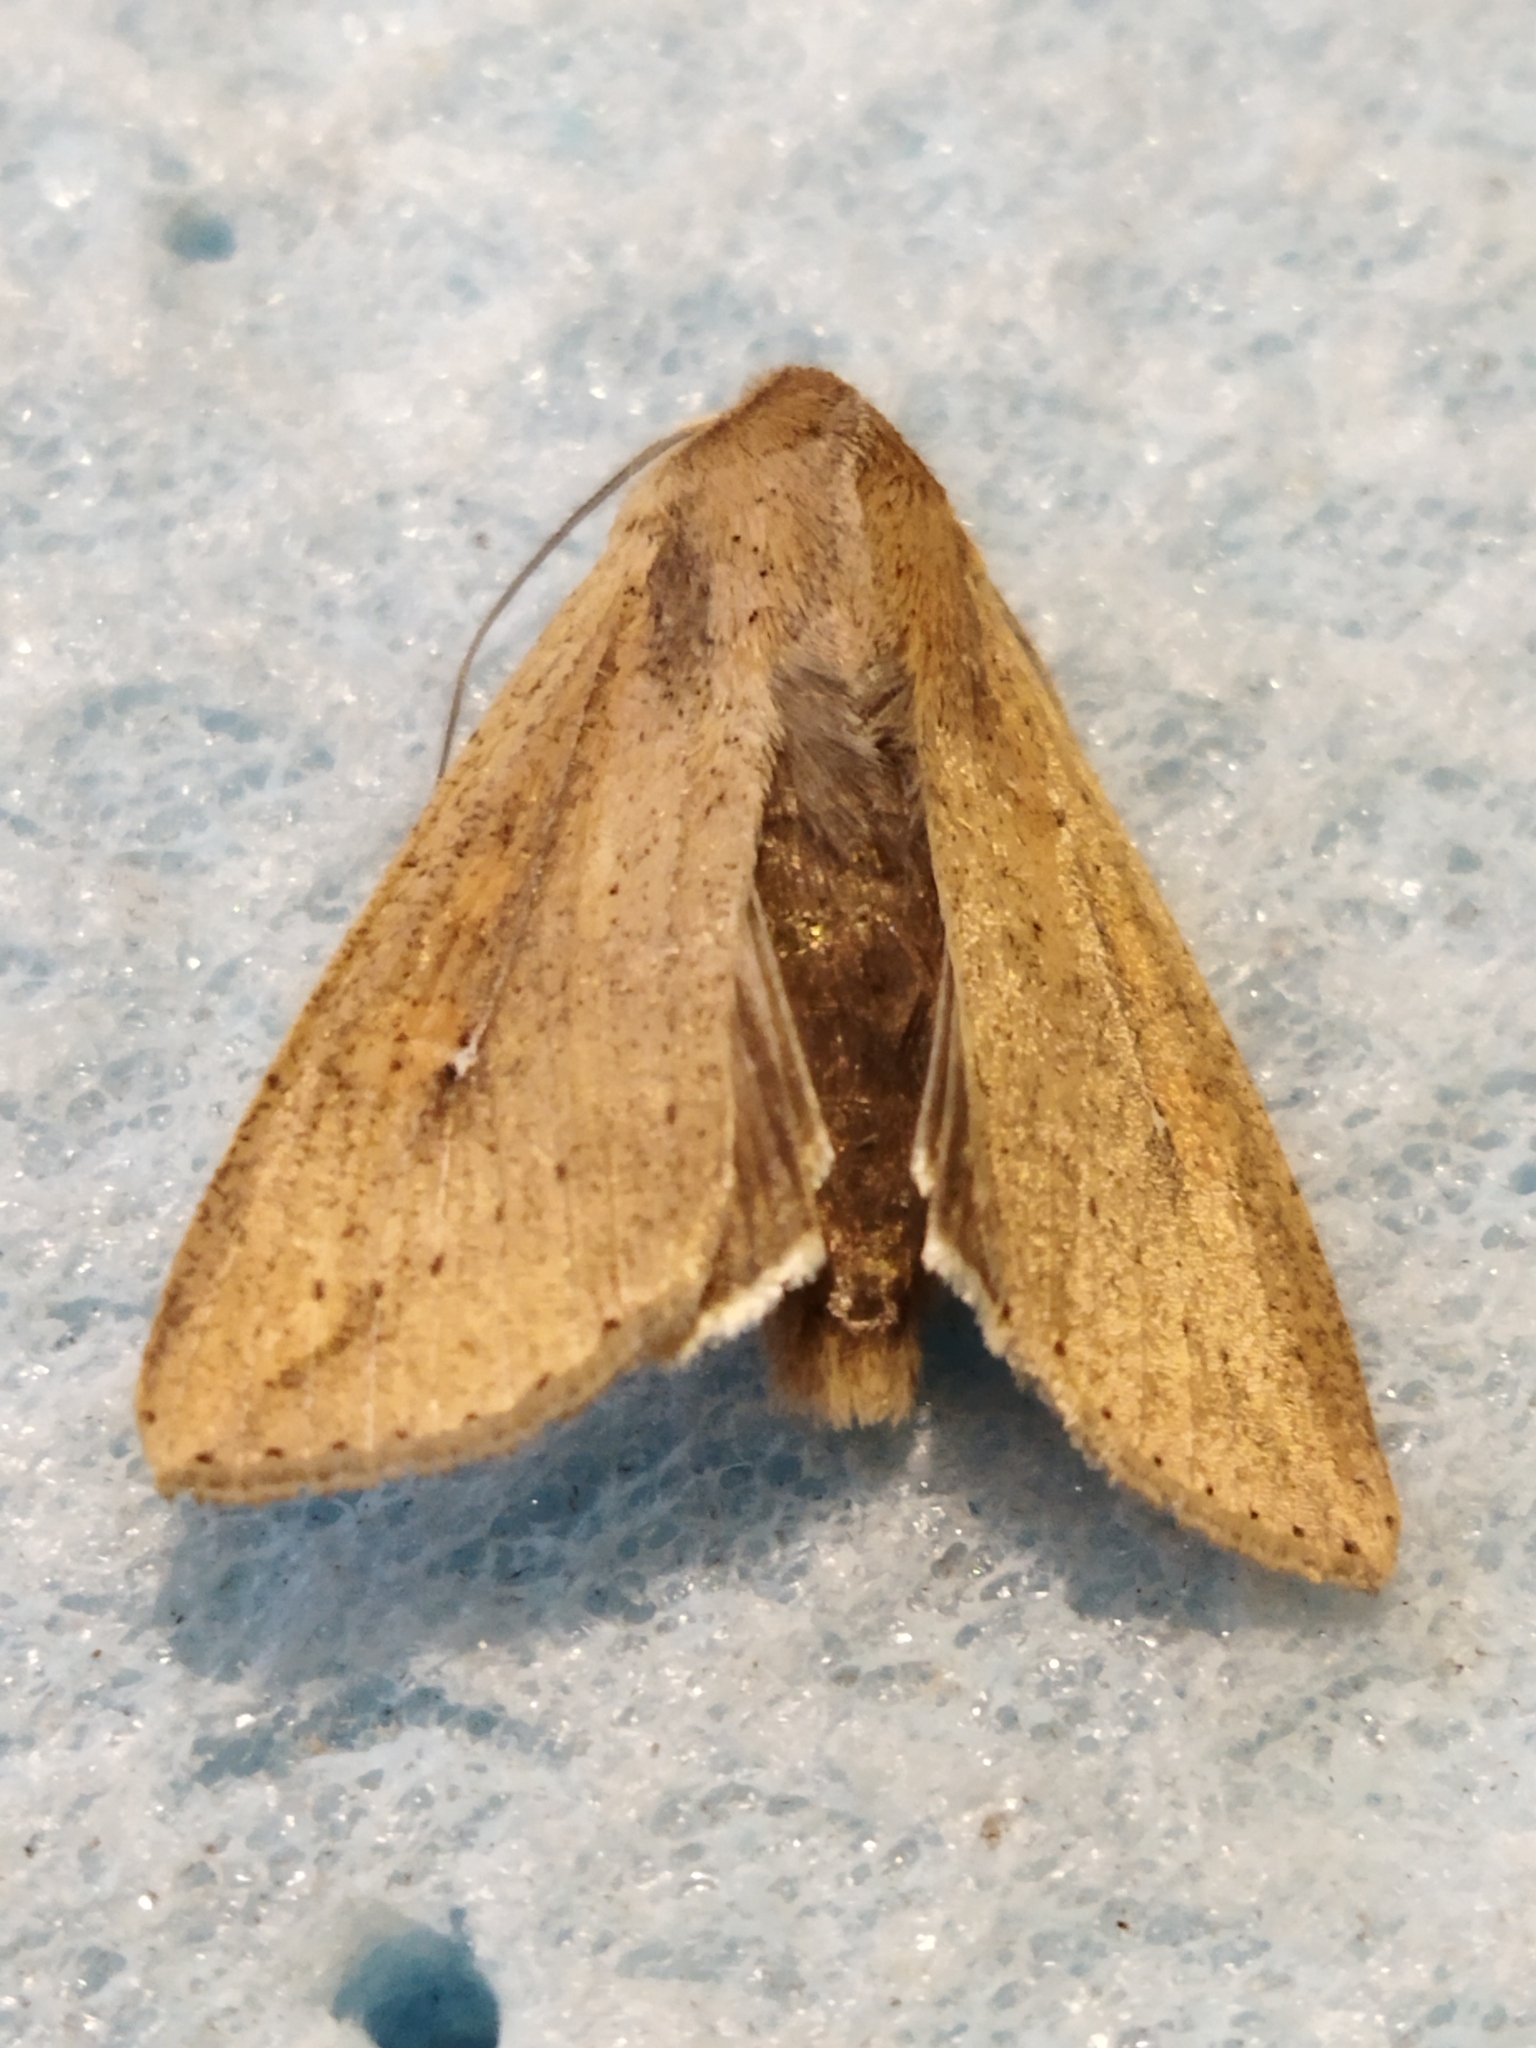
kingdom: Animalia
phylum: Arthropoda
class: Insecta
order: Lepidoptera
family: Noctuidae
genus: Mythimna
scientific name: Mythimna unipuncta
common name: White-speck
